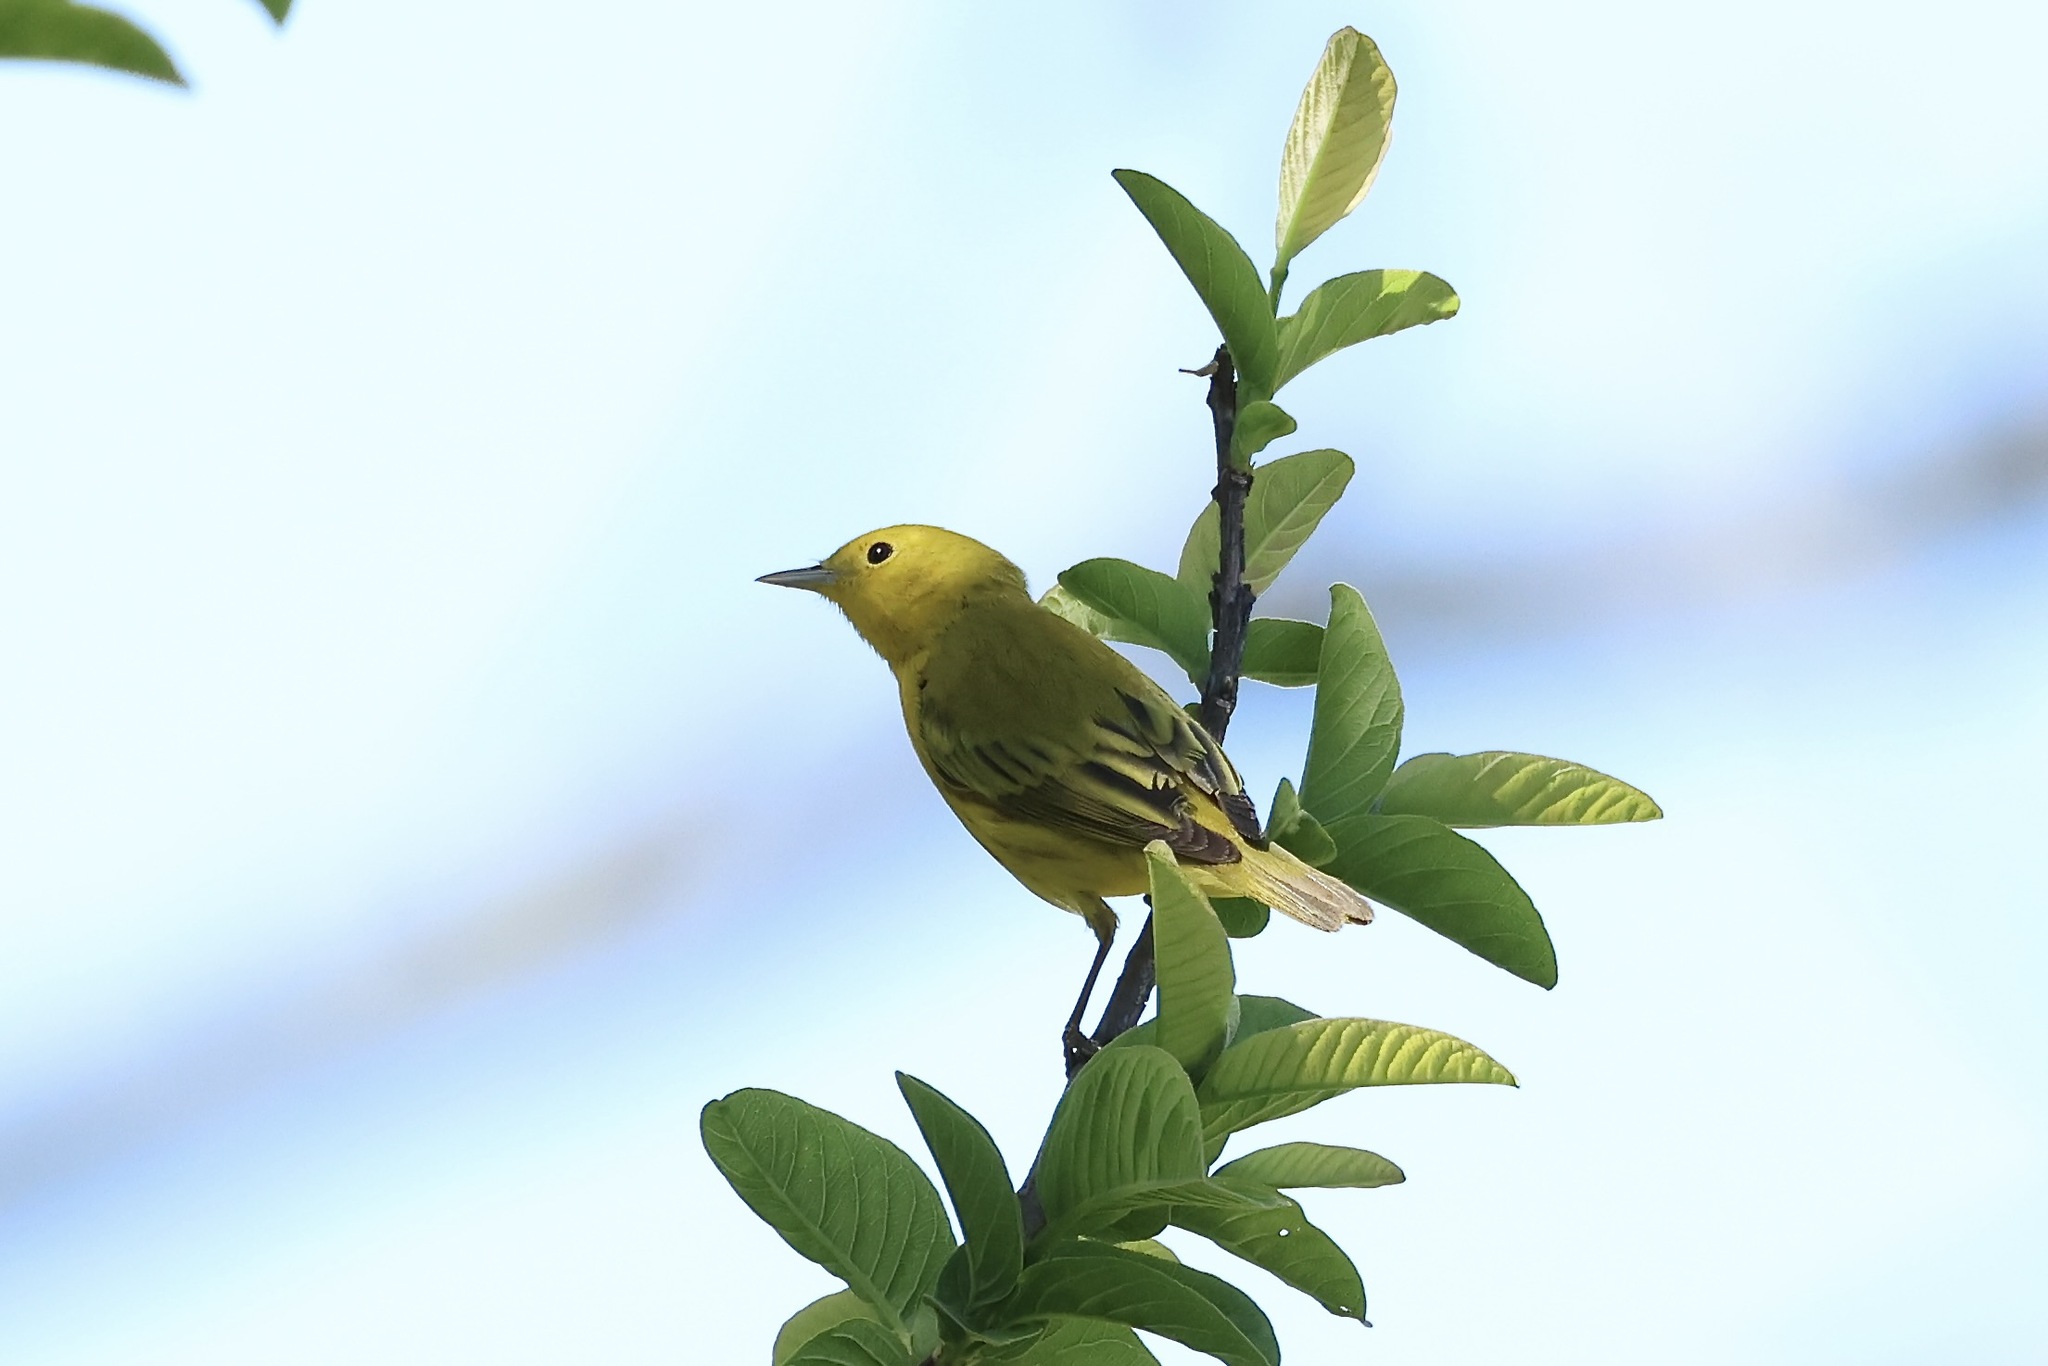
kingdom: Animalia
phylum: Chordata
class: Aves
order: Passeriformes
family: Parulidae
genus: Setophaga
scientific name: Setophaga petechia
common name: Yellow warbler
